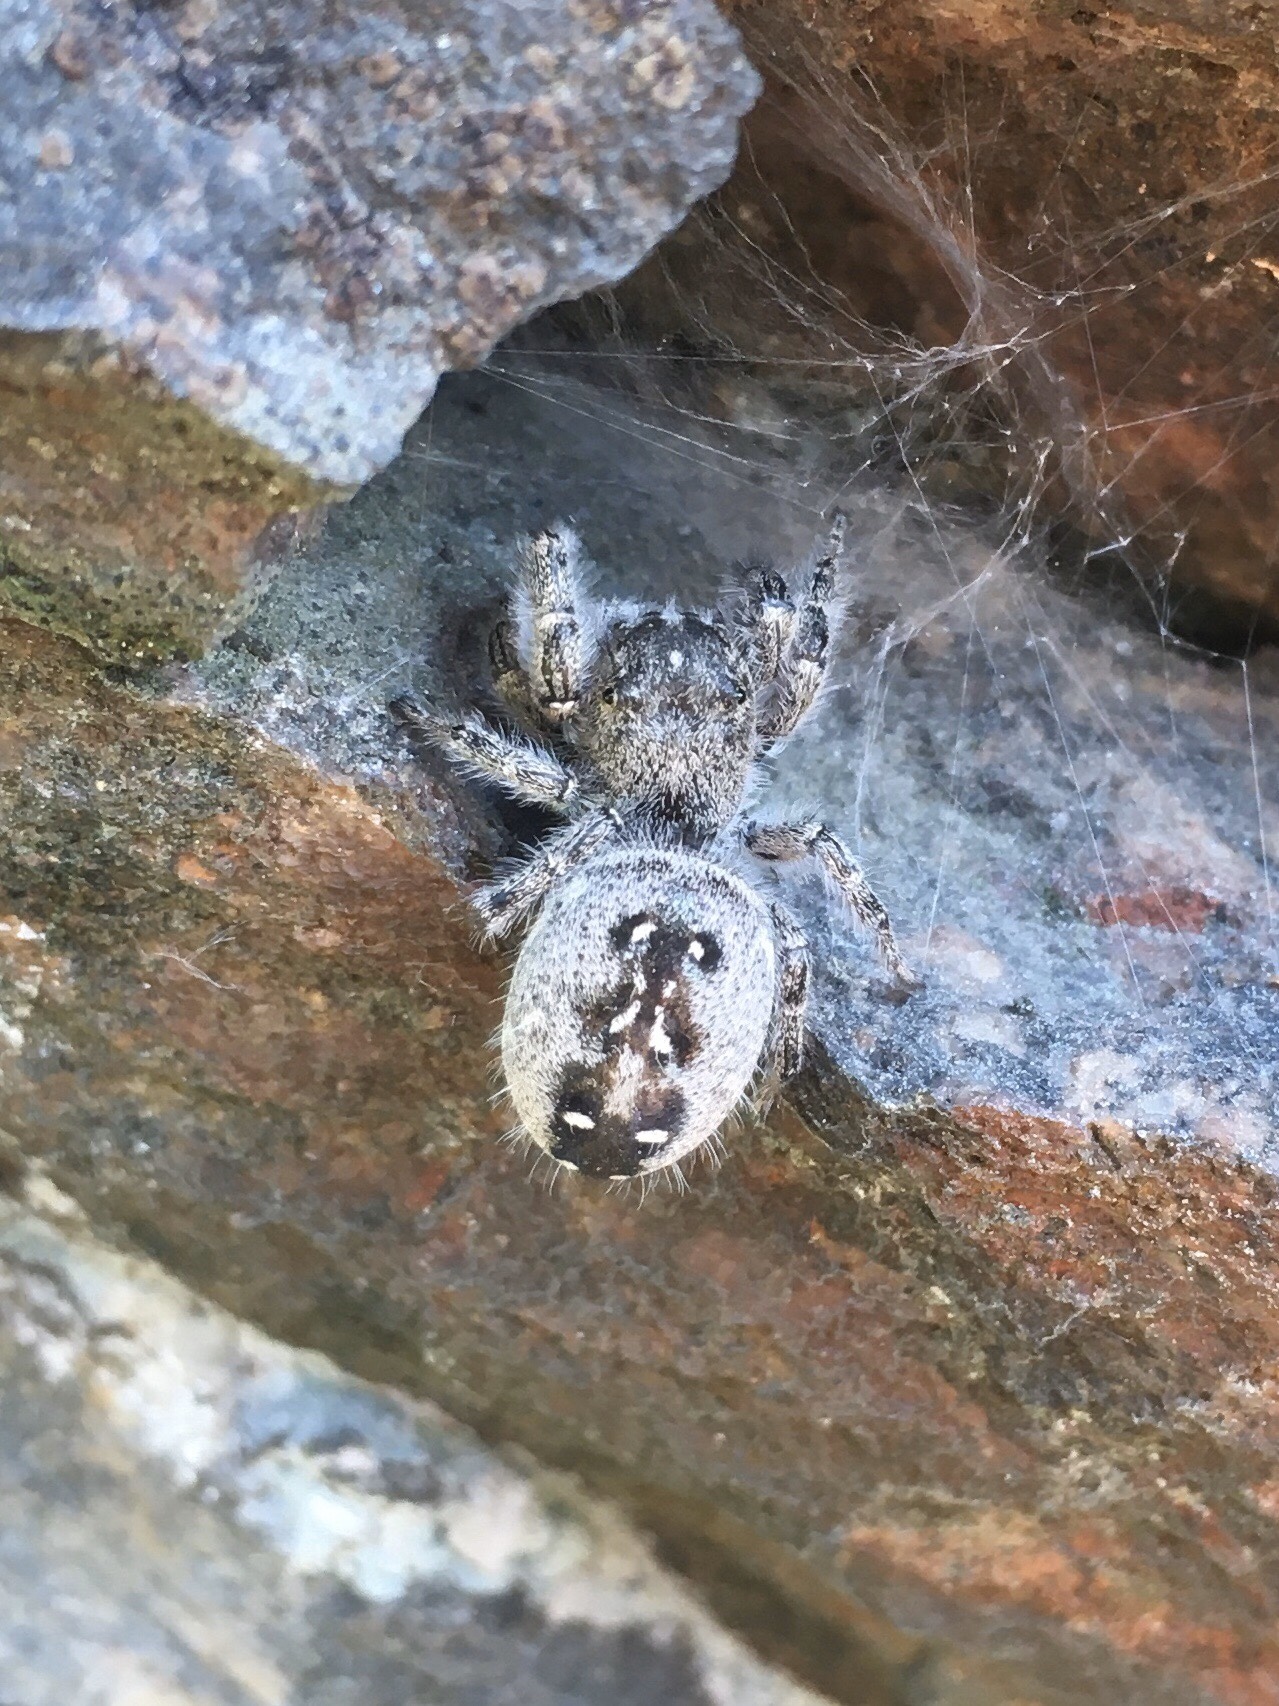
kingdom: Animalia
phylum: Arthropoda
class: Arachnida
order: Araneae
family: Salticidae
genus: Phidippus
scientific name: Phidippus purpuratus
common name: Marbled purple jumping spider
